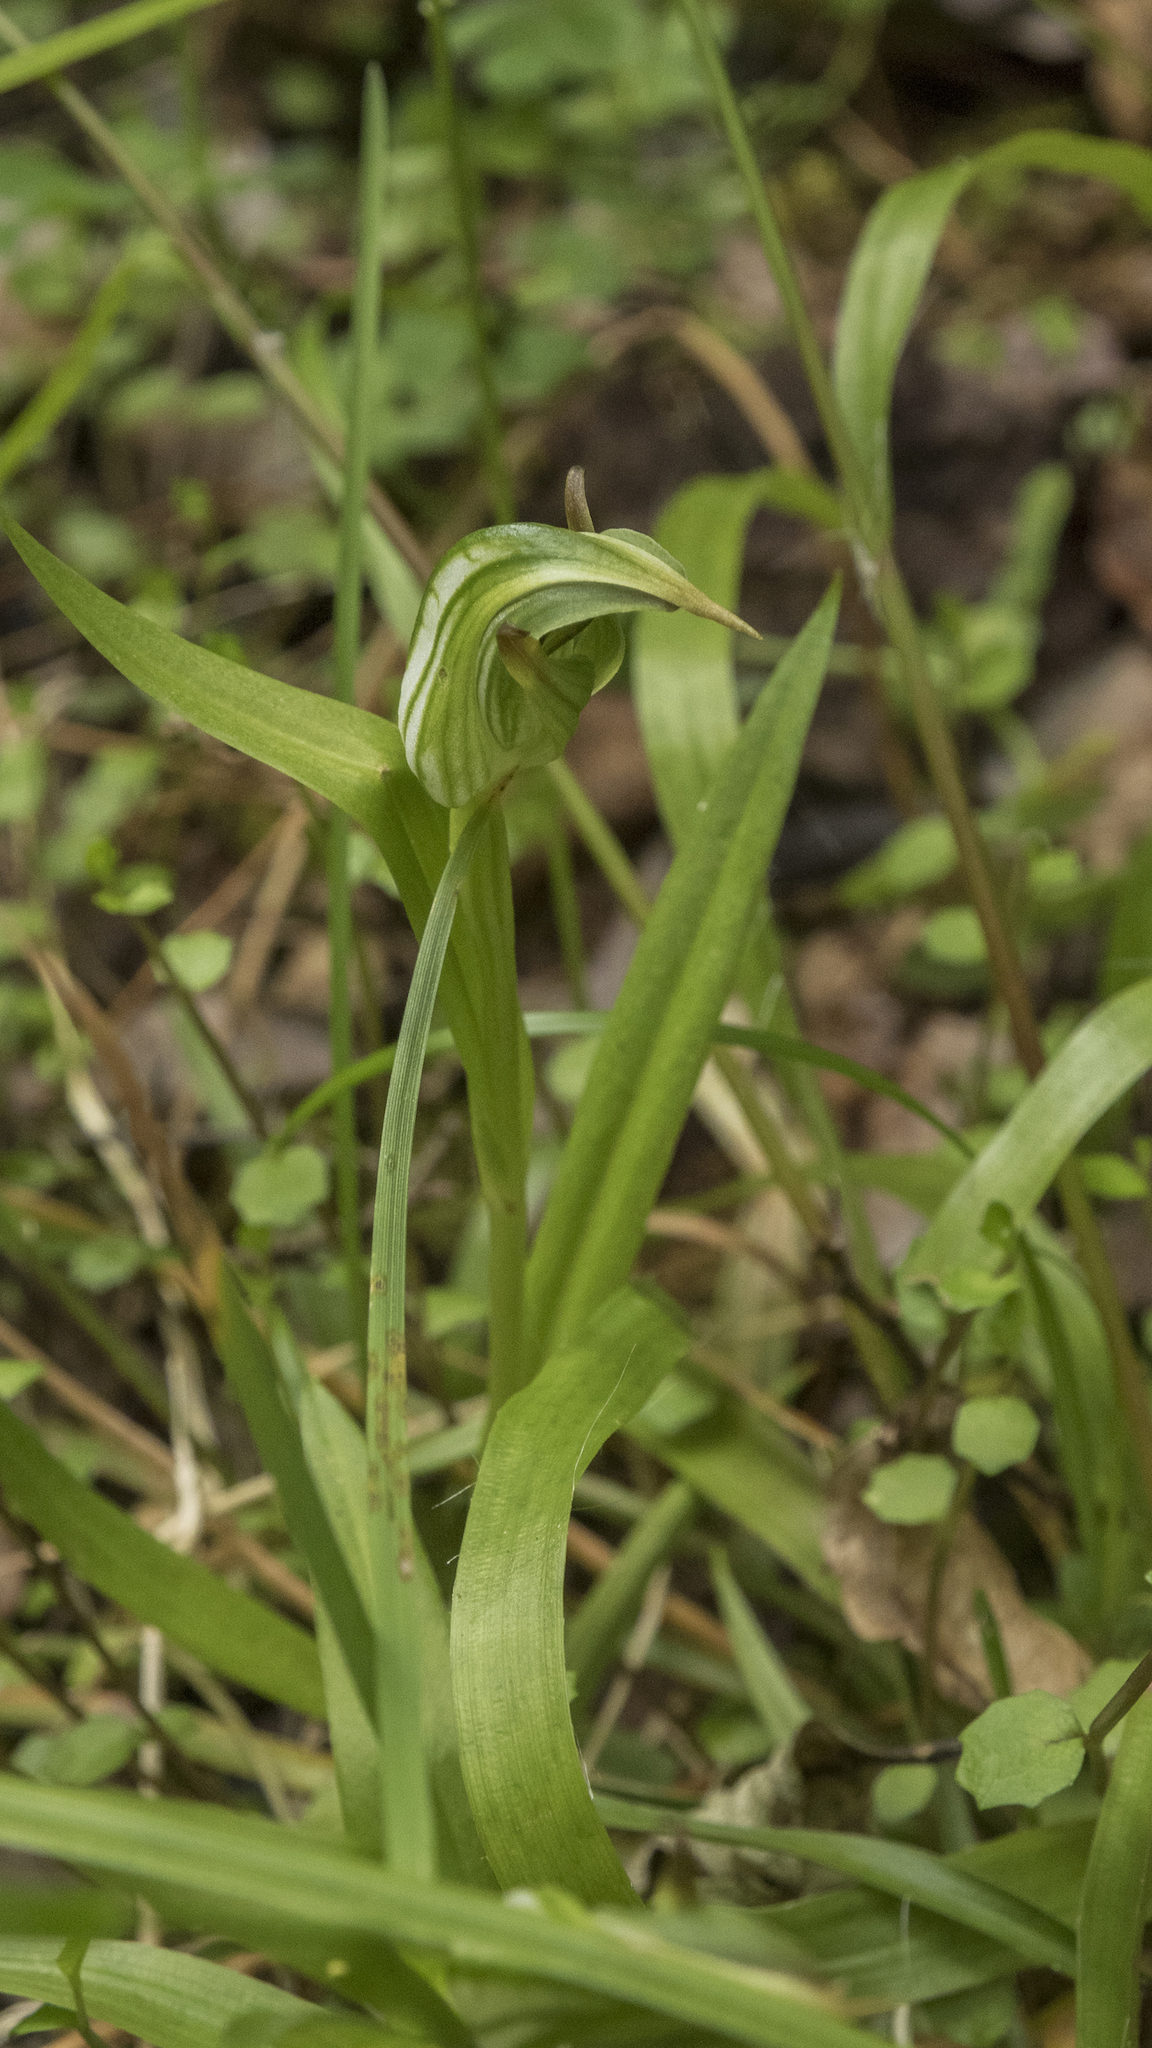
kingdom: Plantae
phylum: Tracheophyta
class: Liliopsida
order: Asparagales
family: Orchidaceae
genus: Pterostylis
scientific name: Pterostylis montana
